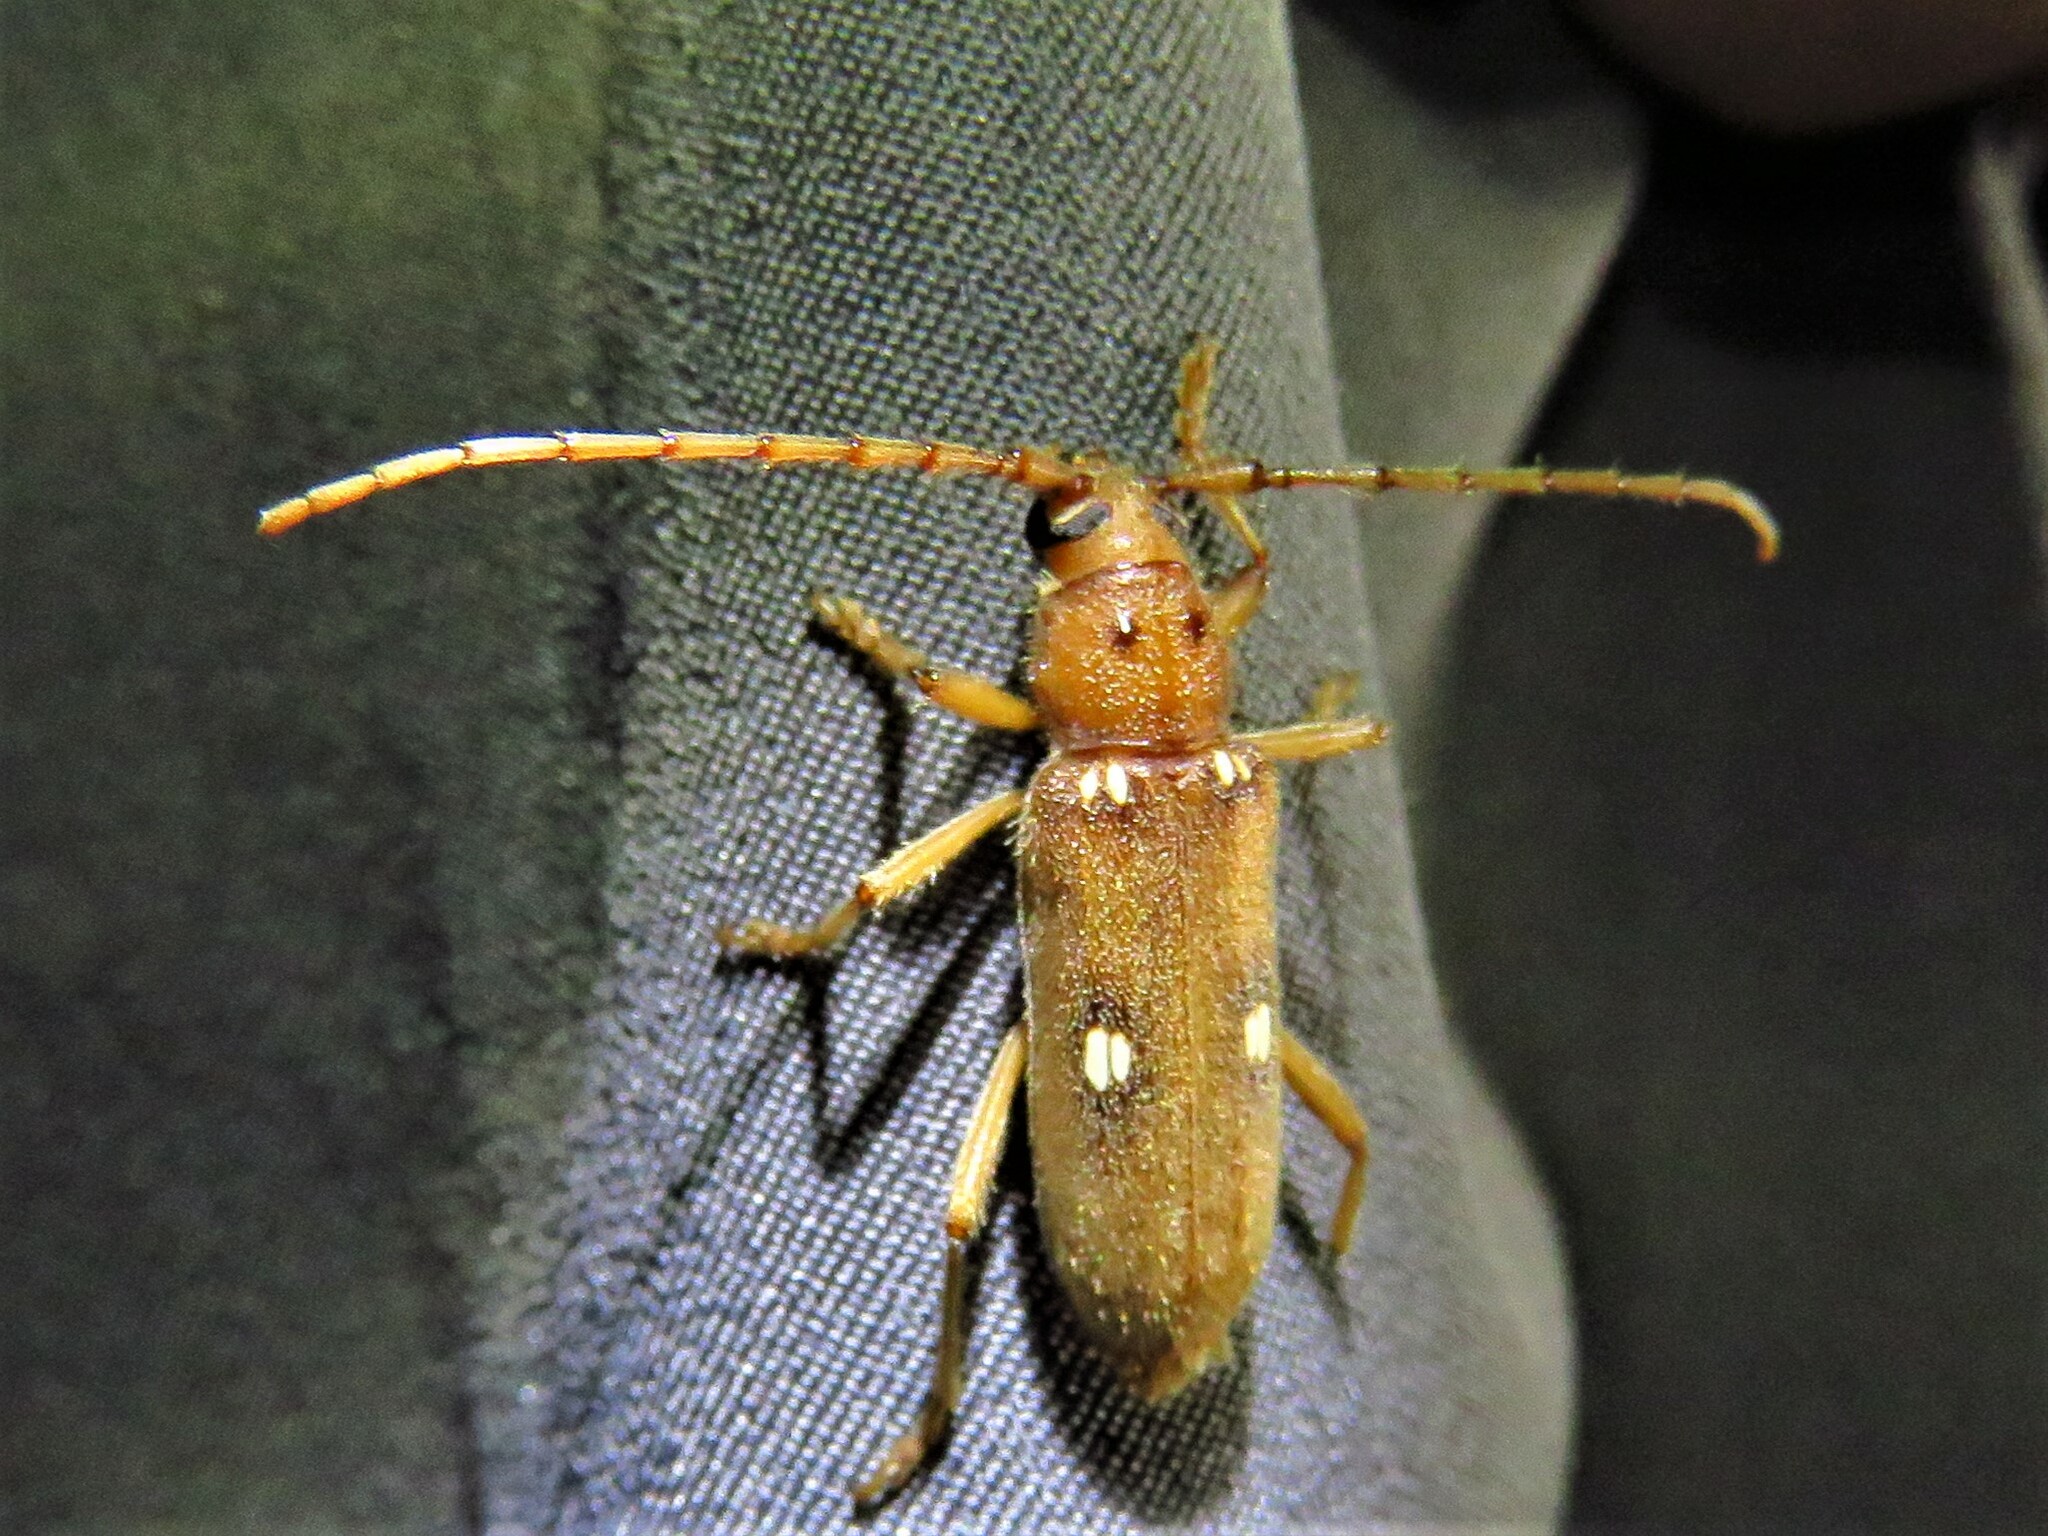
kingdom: Animalia
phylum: Arthropoda
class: Insecta
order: Coleoptera
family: Cerambycidae
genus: Eburia
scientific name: Eburia haldemani
